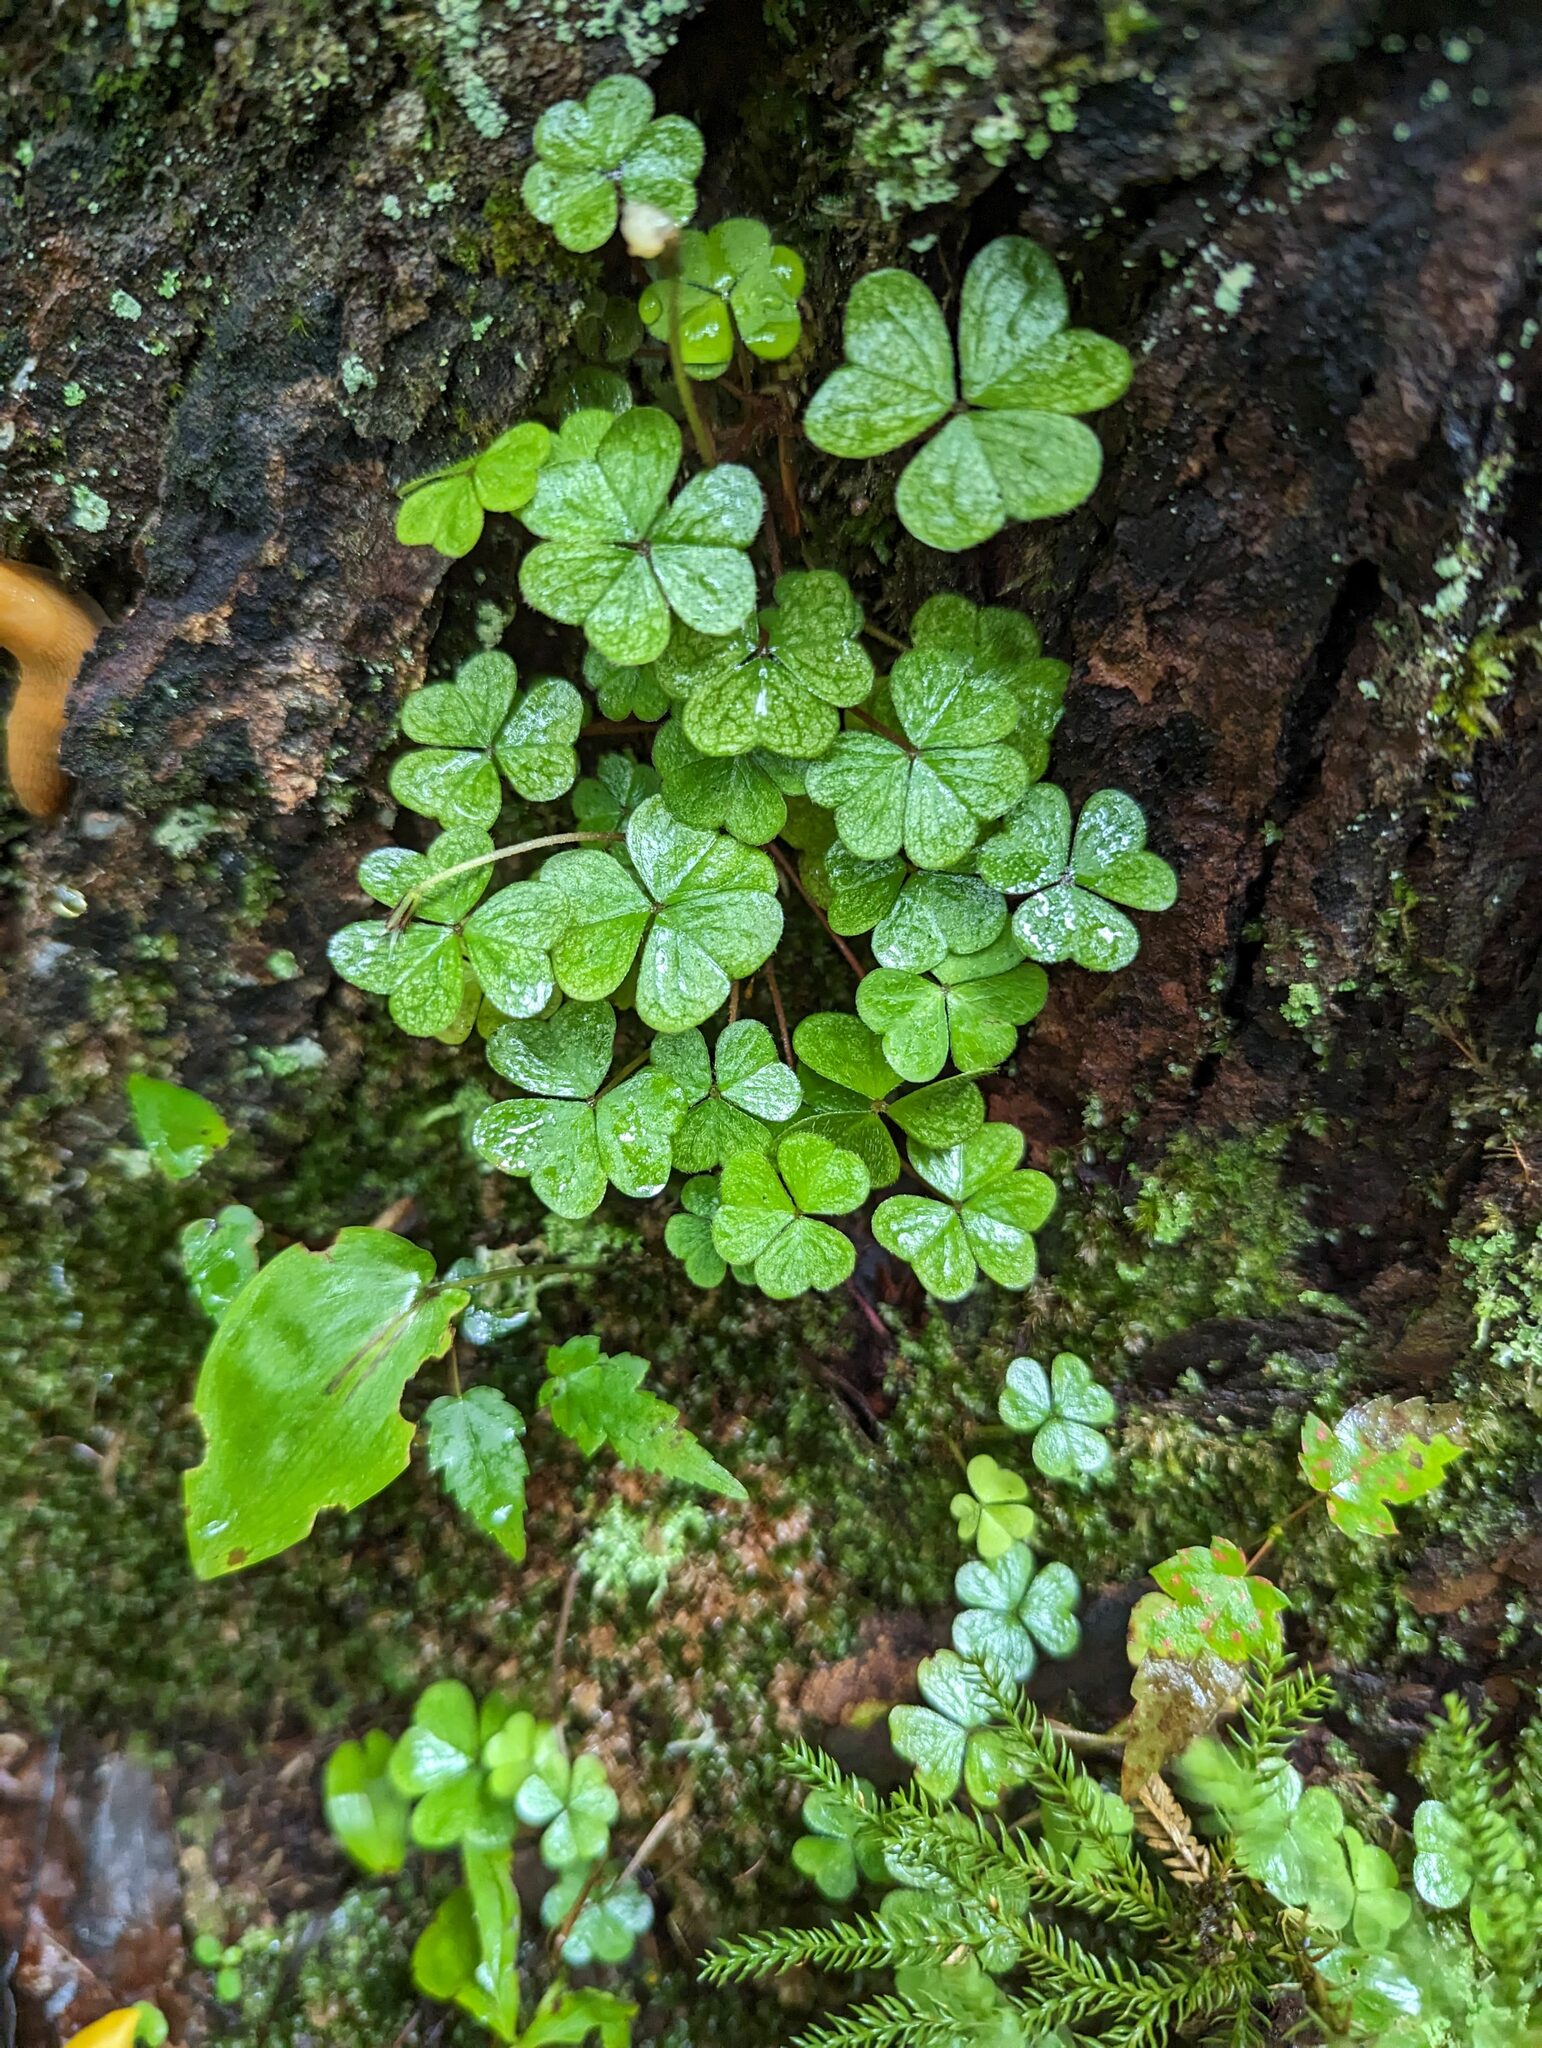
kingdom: Plantae
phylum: Tracheophyta
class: Magnoliopsida
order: Oxalidales
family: Oxalidaceae
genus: Oxalis
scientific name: Oxalis montana
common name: American wood-sorrel
